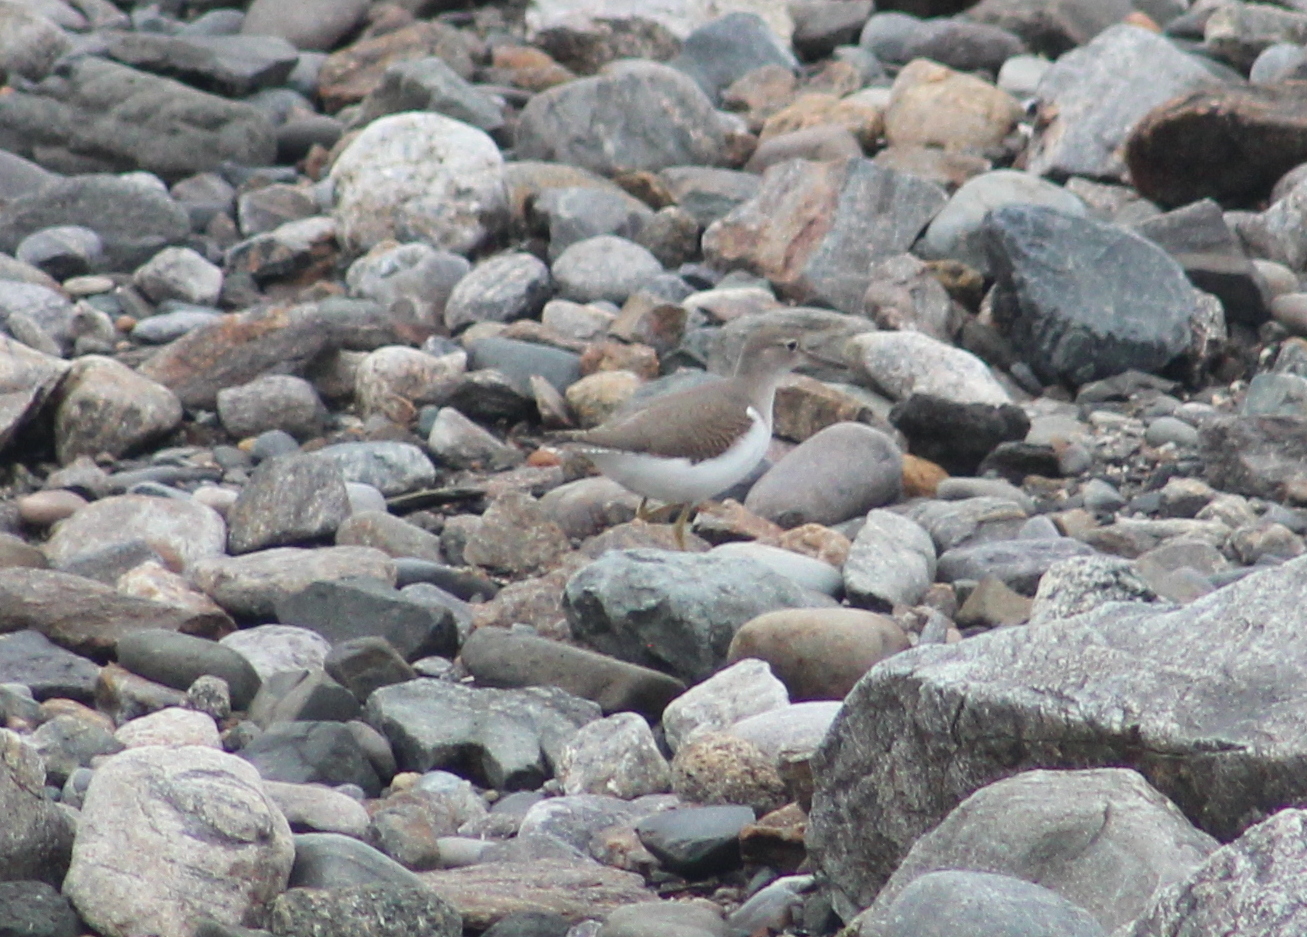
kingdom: Animalia
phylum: Chordata
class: Aves
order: Charadriiformes
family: Scolopacidae
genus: Actitis
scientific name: Actitis macularius
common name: Spotted sandpiper
